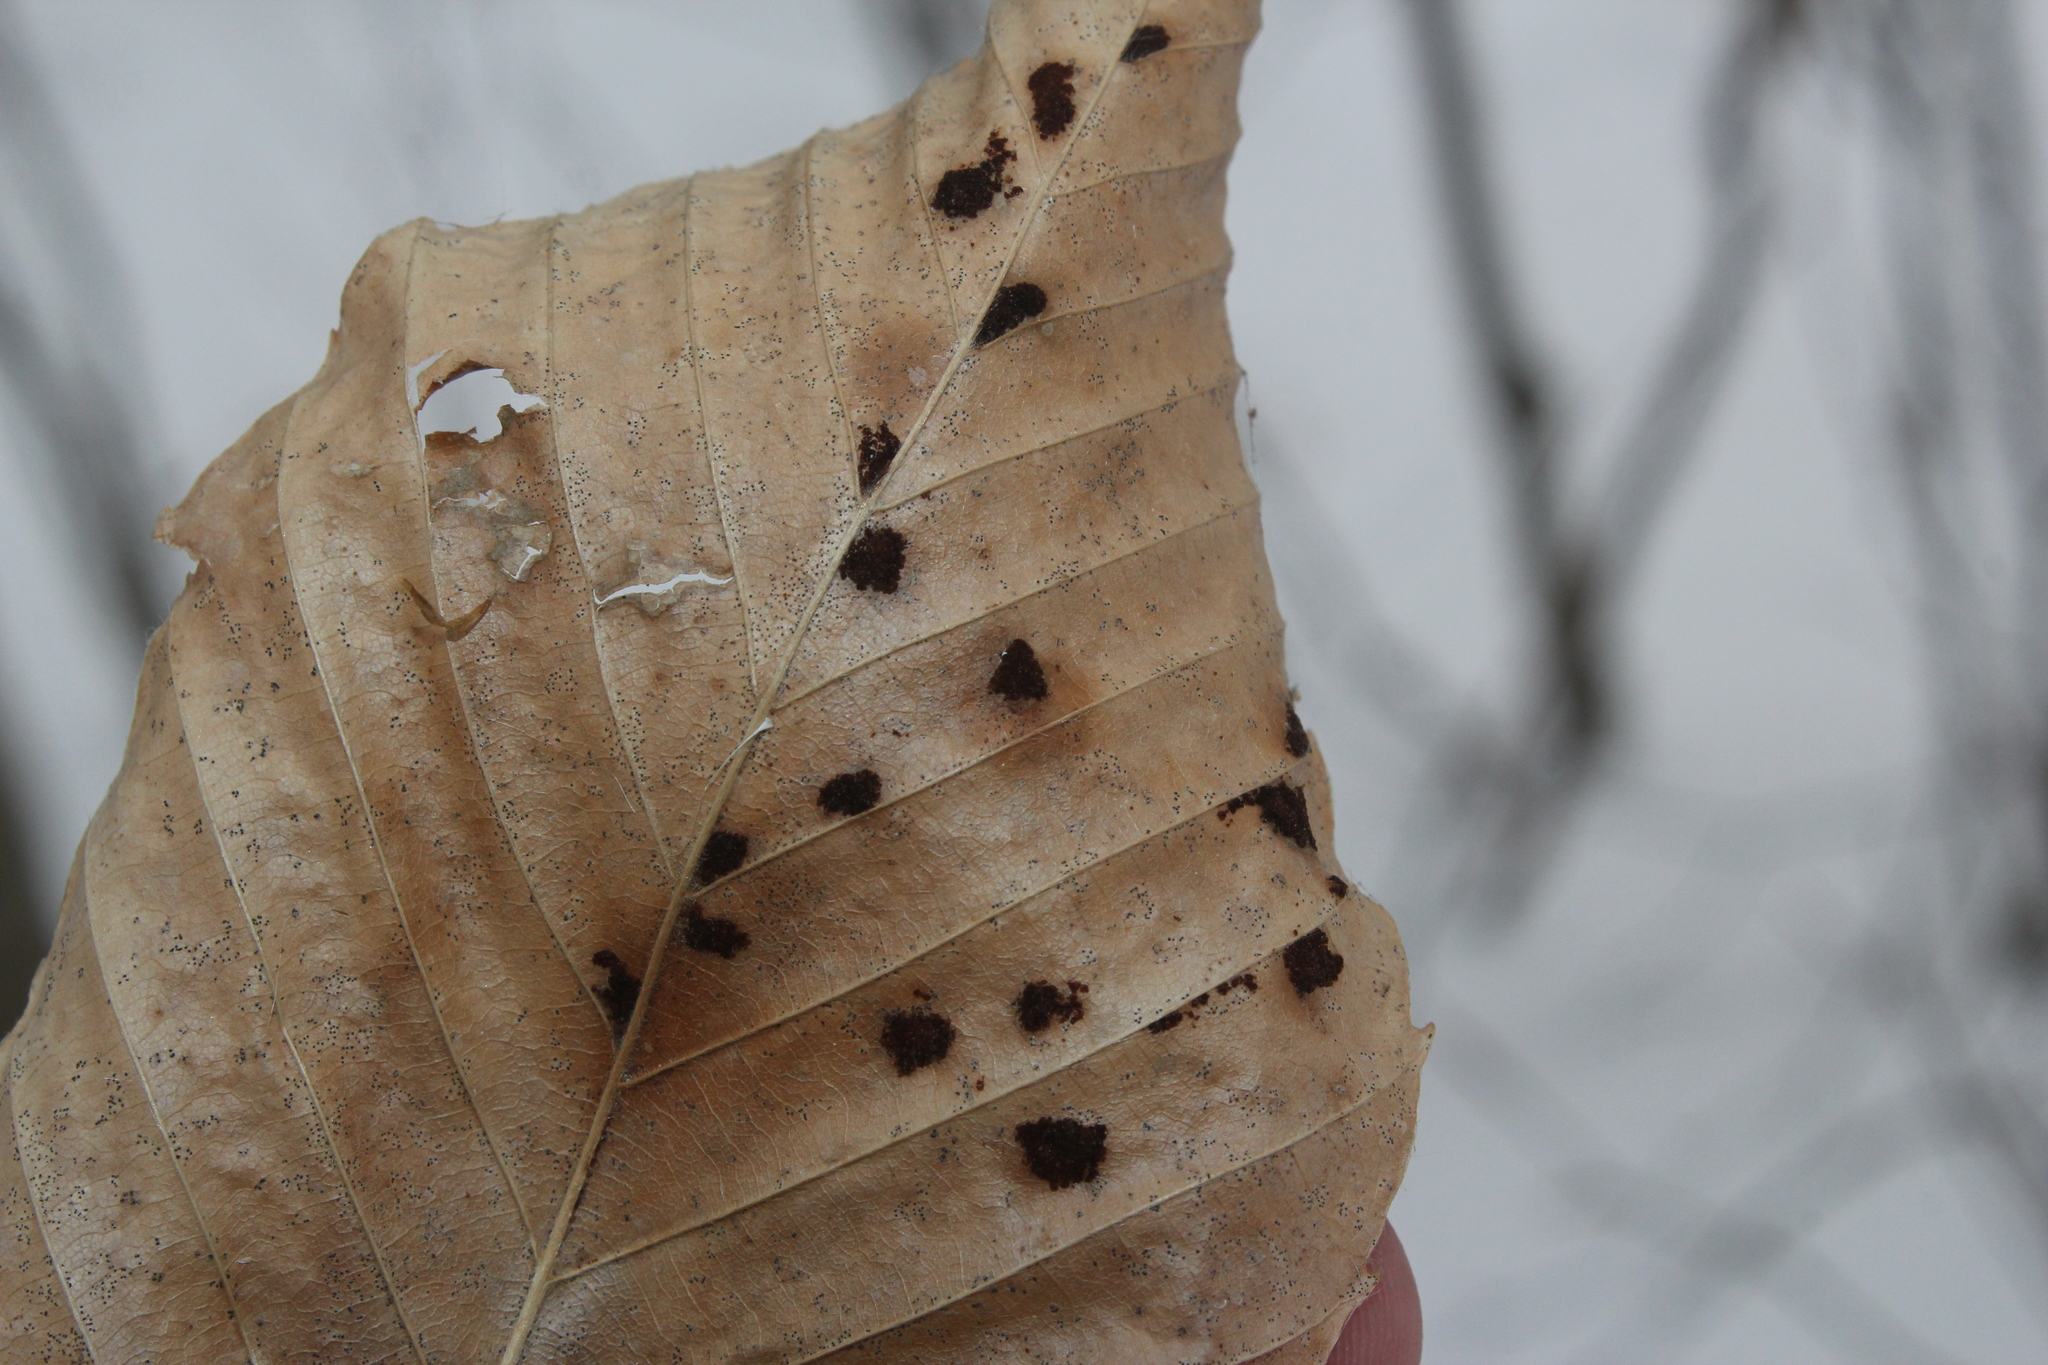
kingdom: Animalia
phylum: Arthropoda
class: Arachnida
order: Trombidiformes
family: Eriophyidae
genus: Acalitus
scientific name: Acalitus
